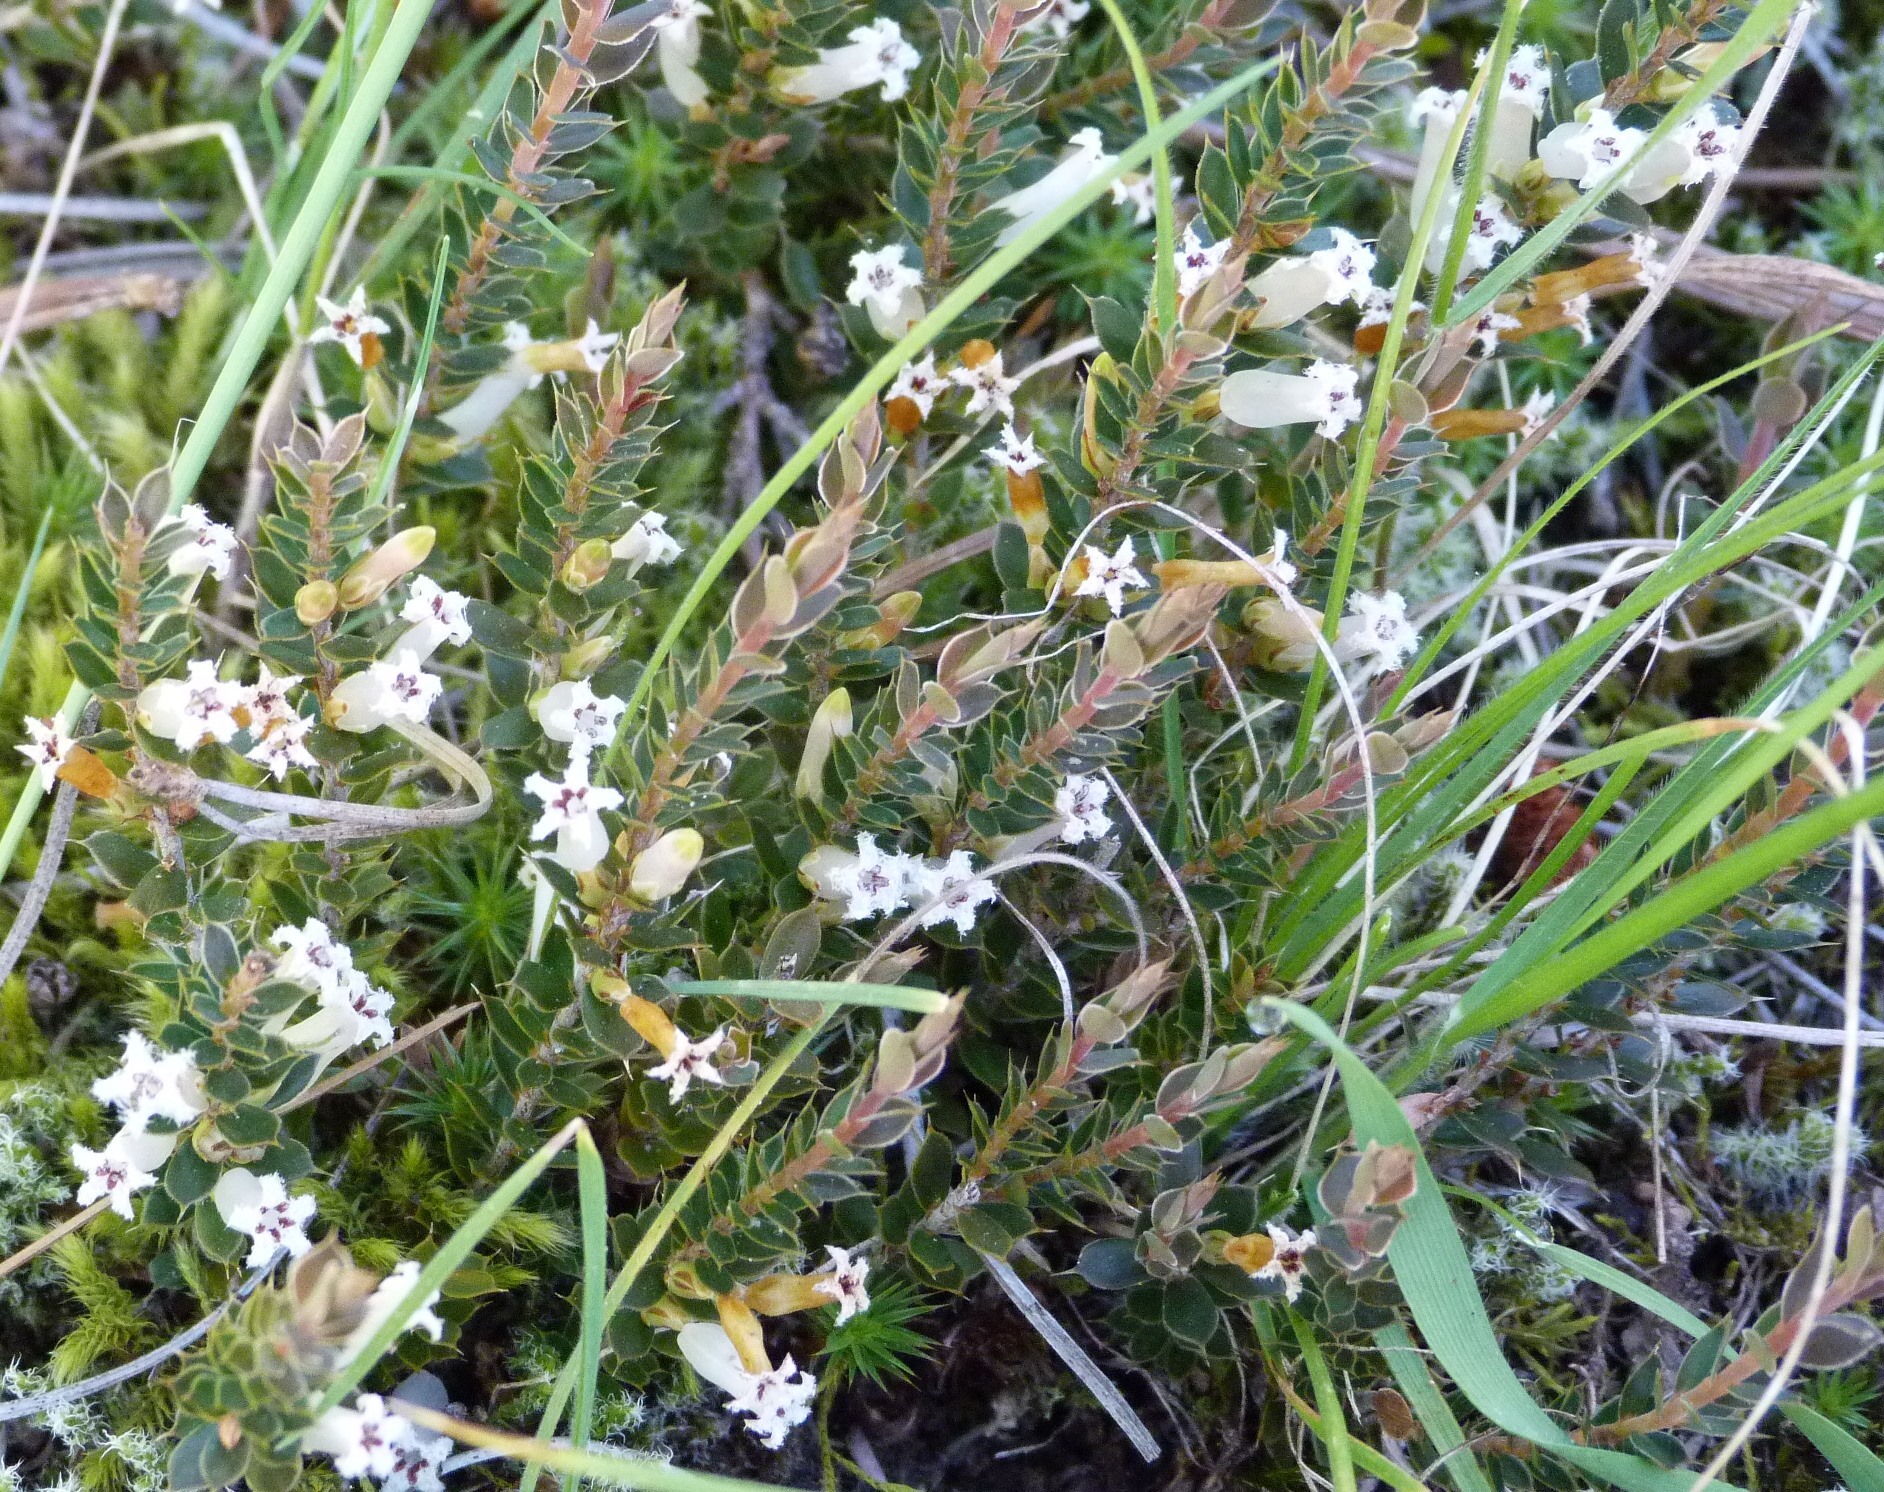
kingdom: Plantae
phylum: Tracheophyta
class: Magnoliopsida
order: Ericales
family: Ericaceae
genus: Styphelia
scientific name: Styphelia nesophila
